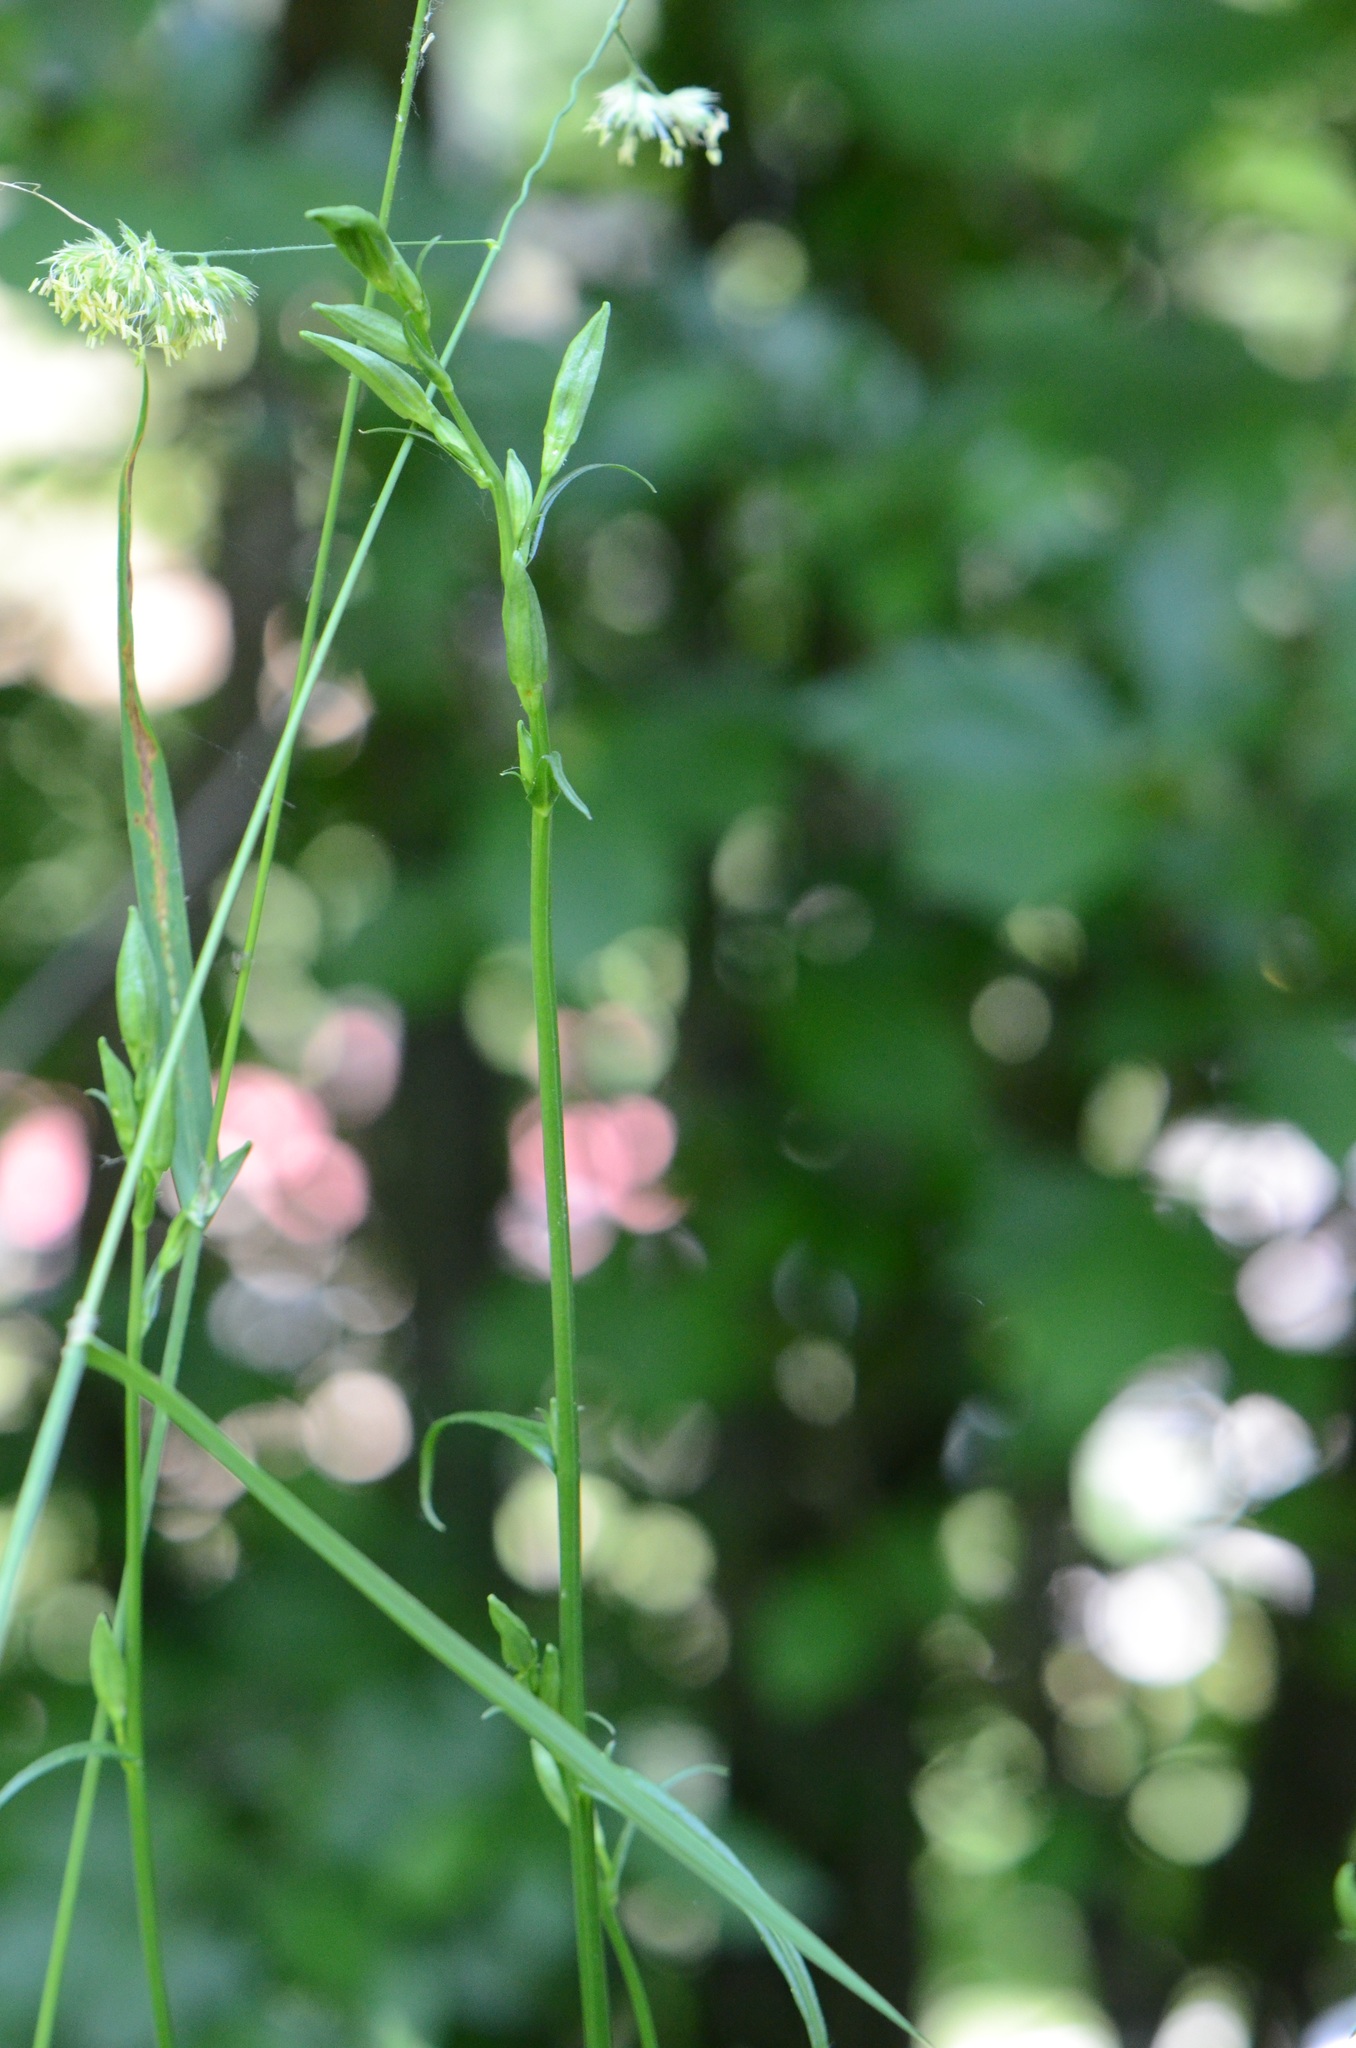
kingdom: Plantae
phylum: Tracheophyta
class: Magnoliopsida
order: Asterales
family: Campanulaceae
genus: Campanula
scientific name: Campanula persicifolia
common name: Peach-leaved bellflower
